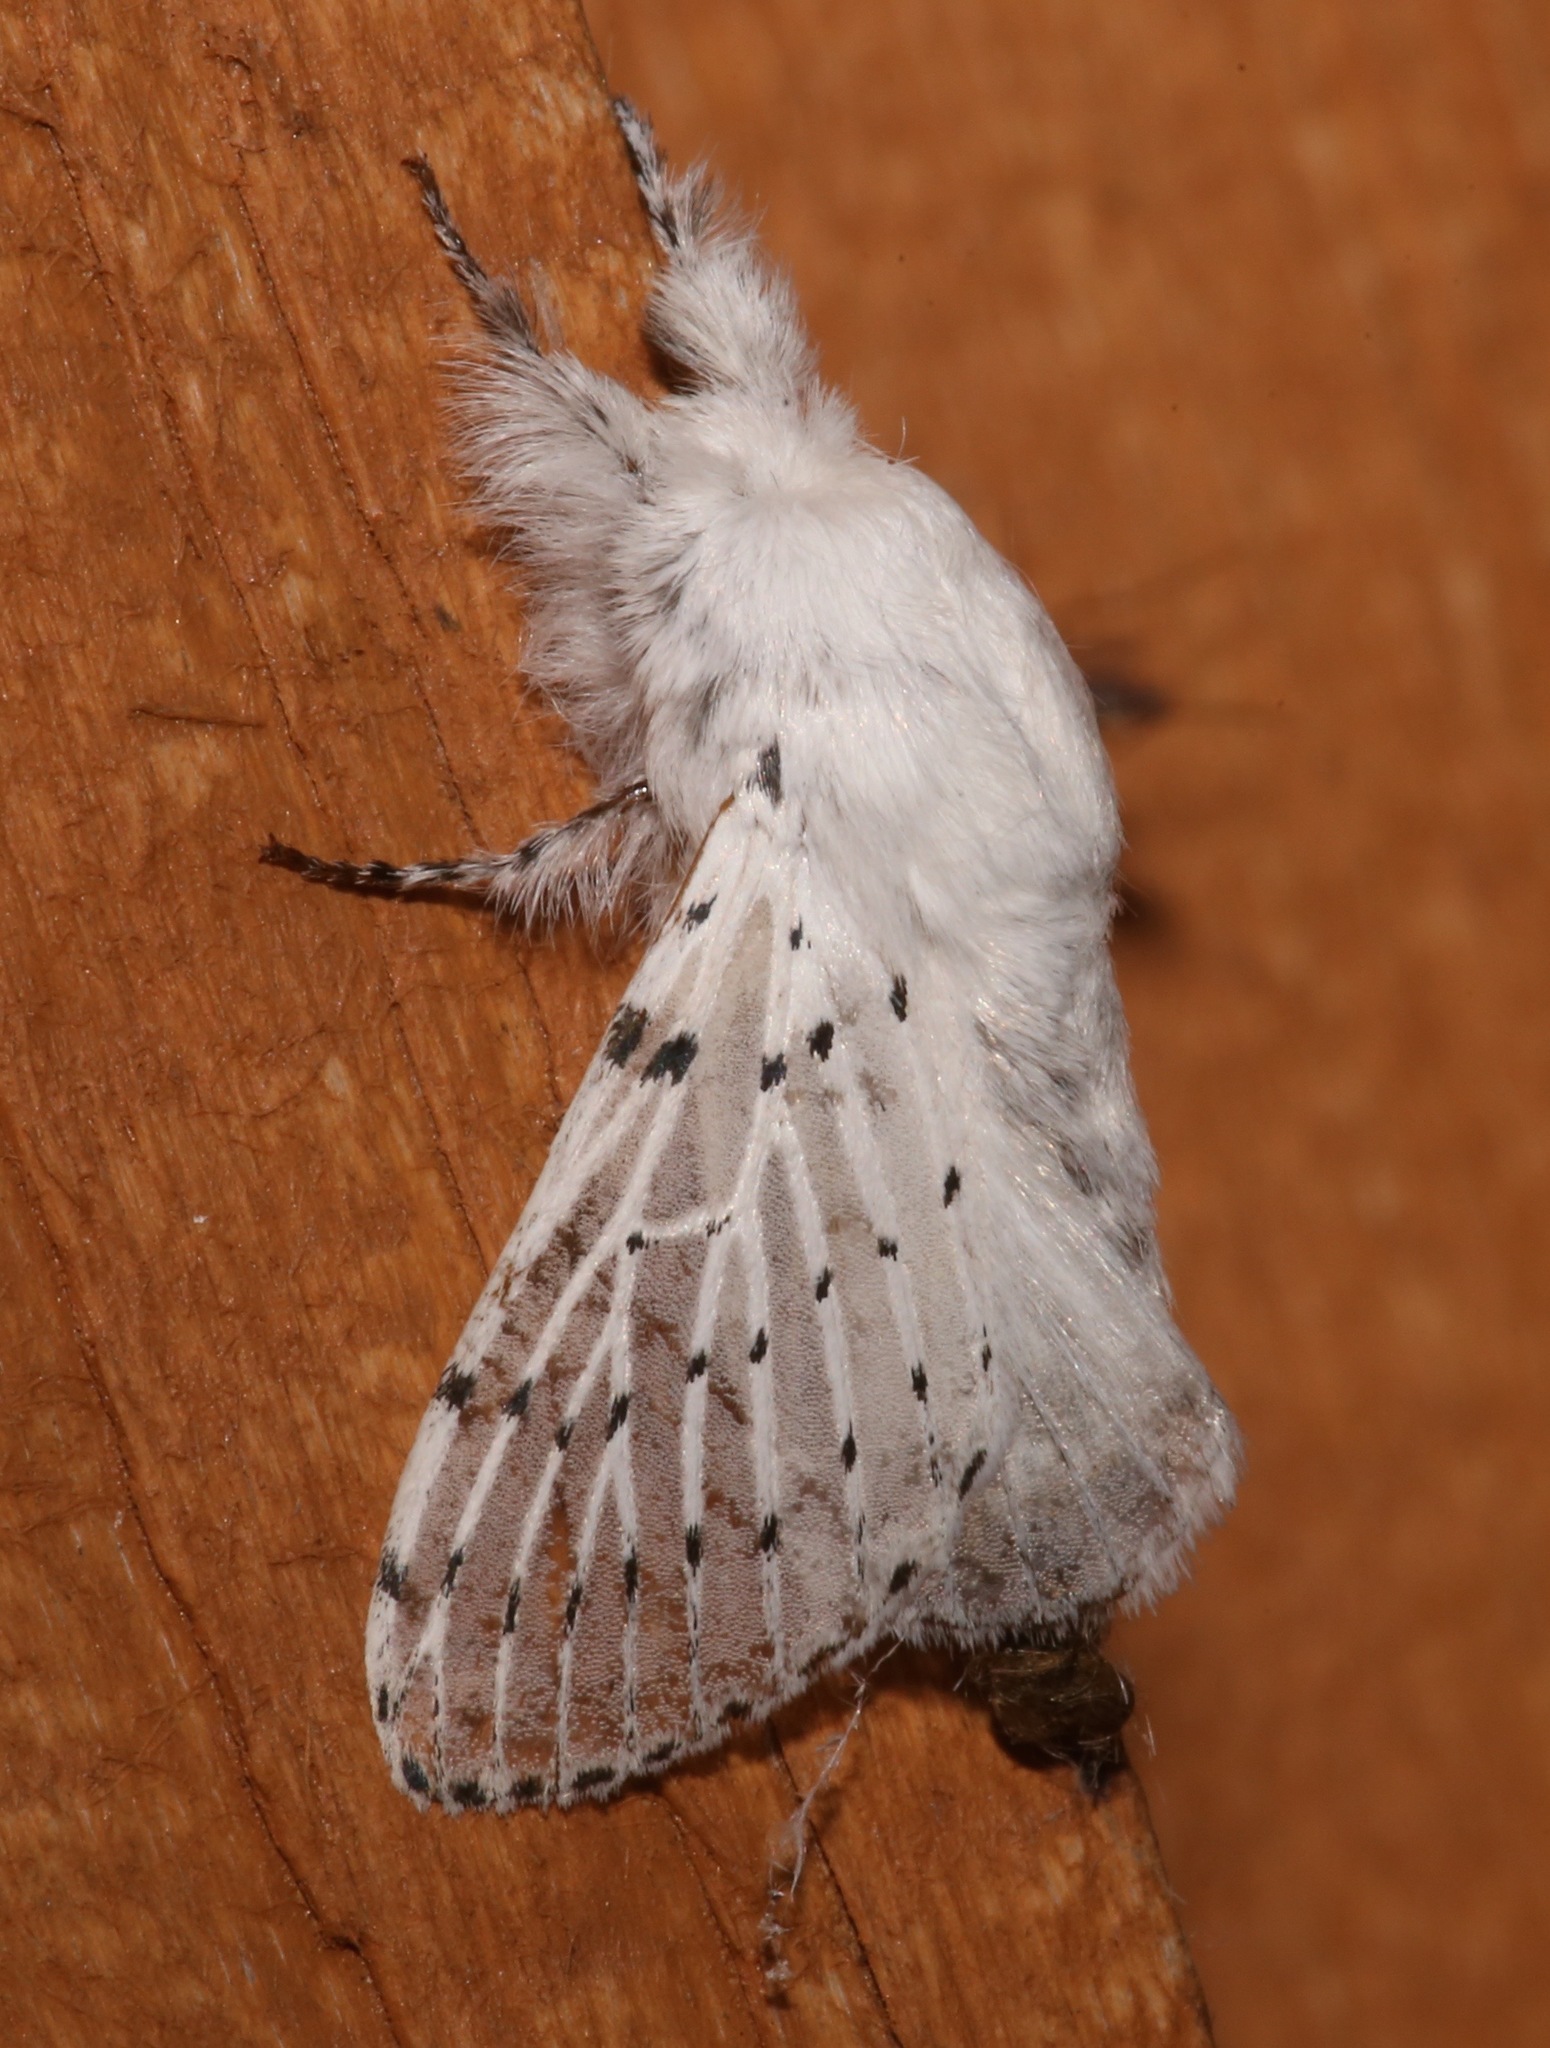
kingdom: Animalia
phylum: Arthropoda
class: Insecta
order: Lepidoptera
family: Lasiocampidae
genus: Artace
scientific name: Artace cribrarius
